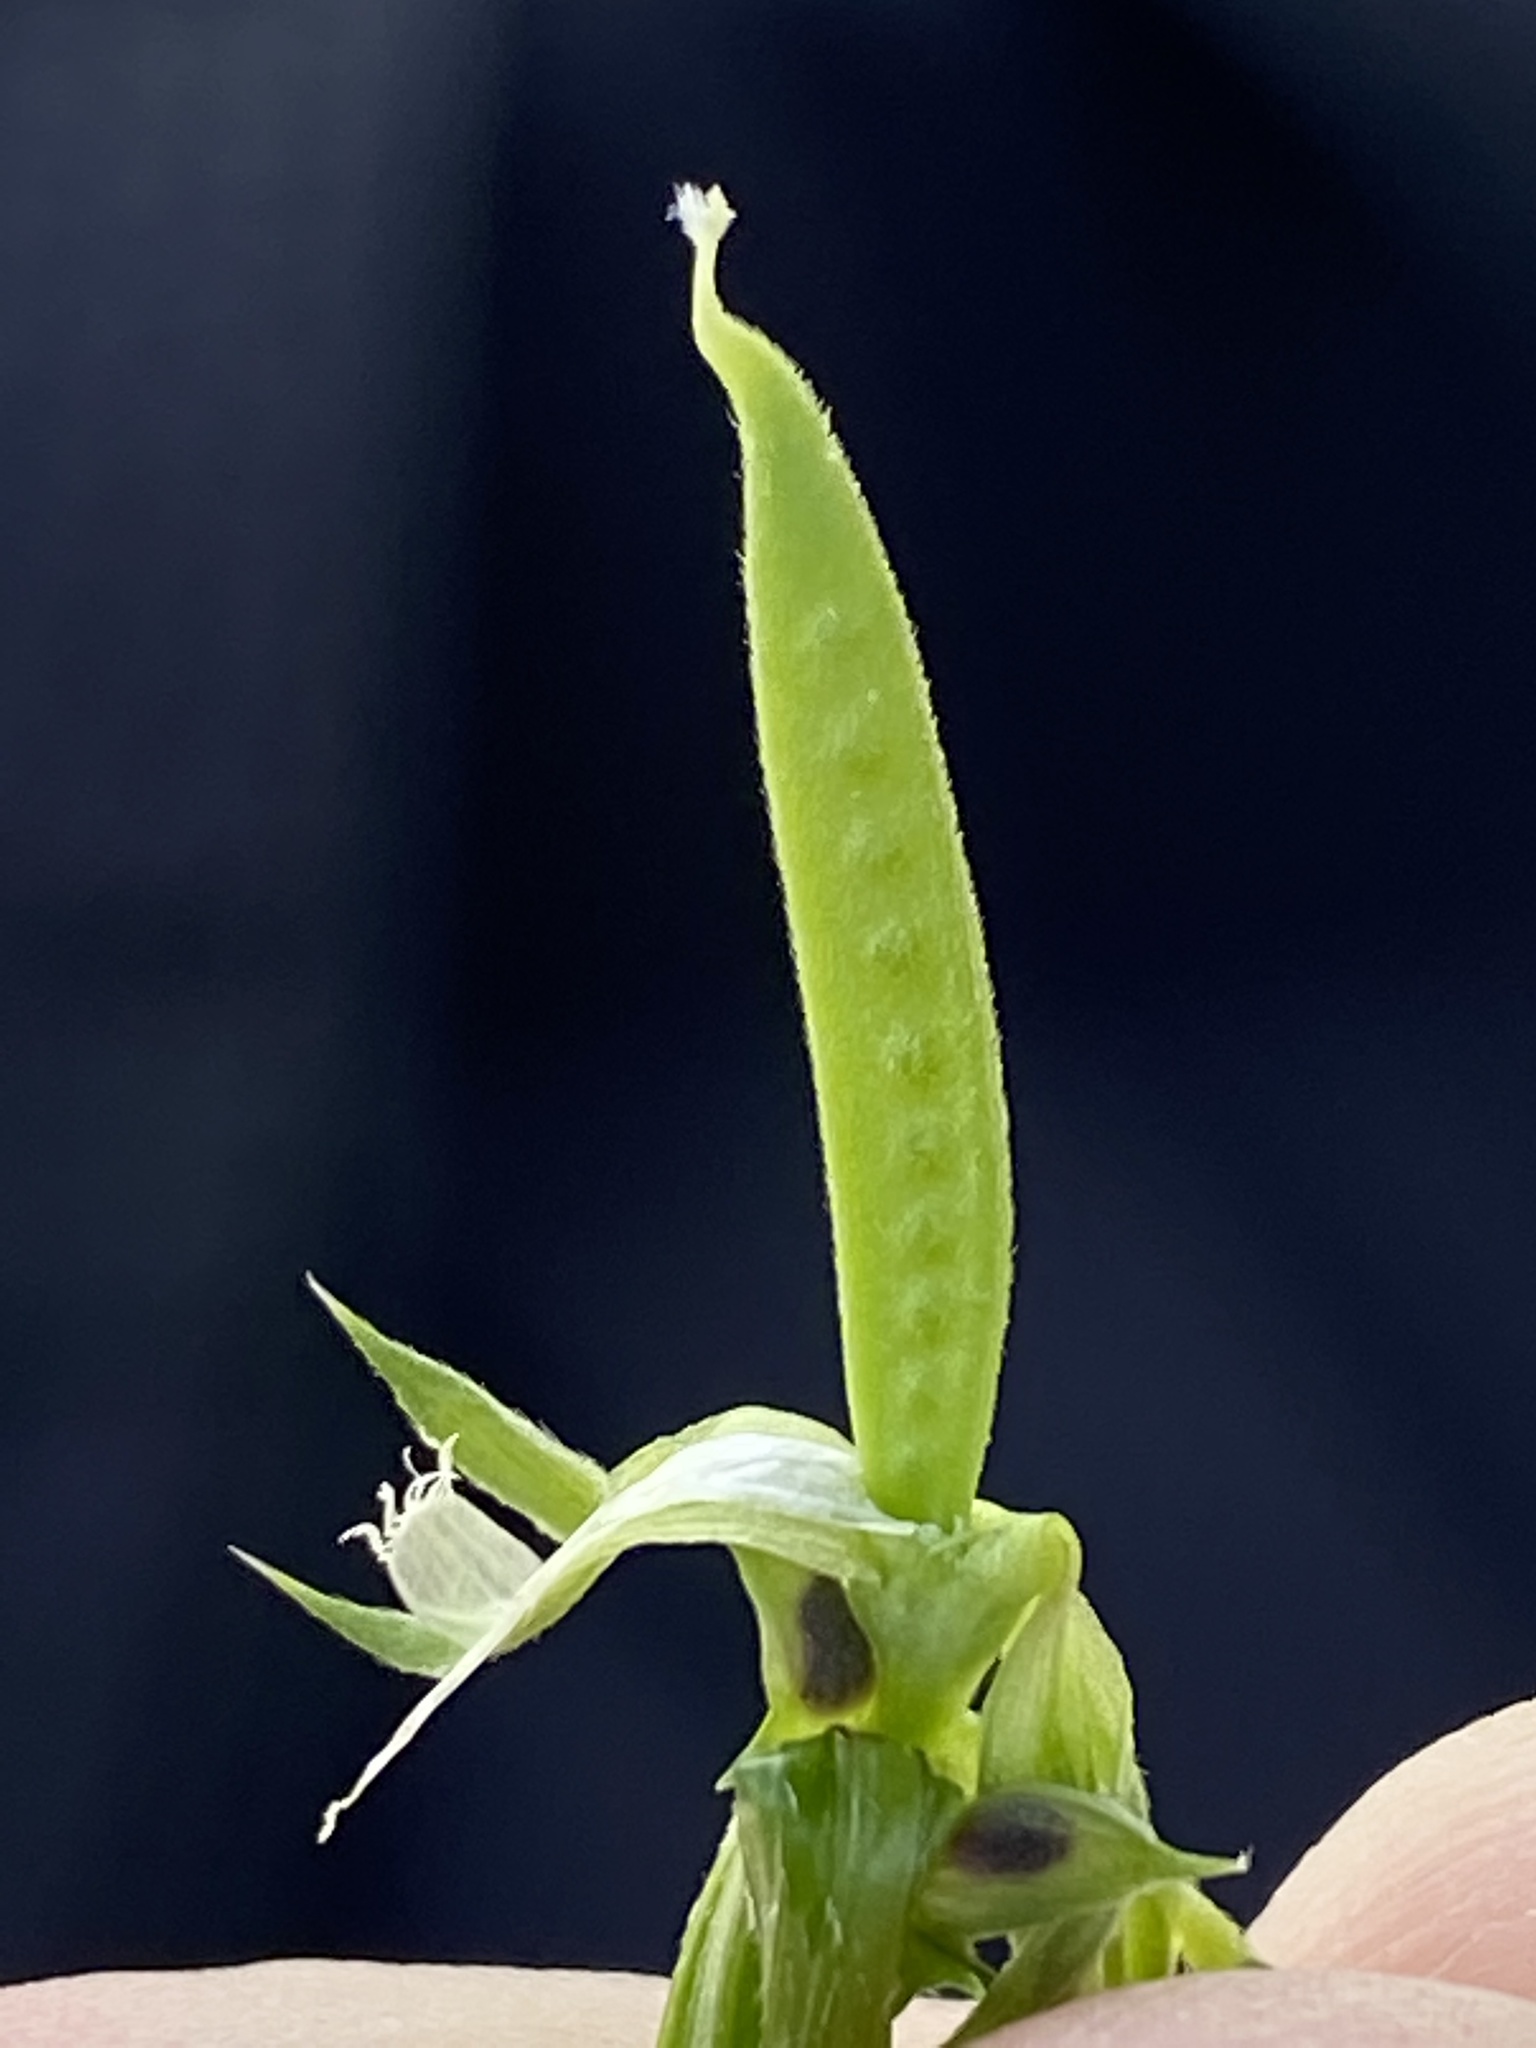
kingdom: Plantae
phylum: Tracheophyta
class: Magnoliopsida
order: Fabales
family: Fabaceae
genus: Vicia
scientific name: Vicia sativa
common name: Garden vetch
